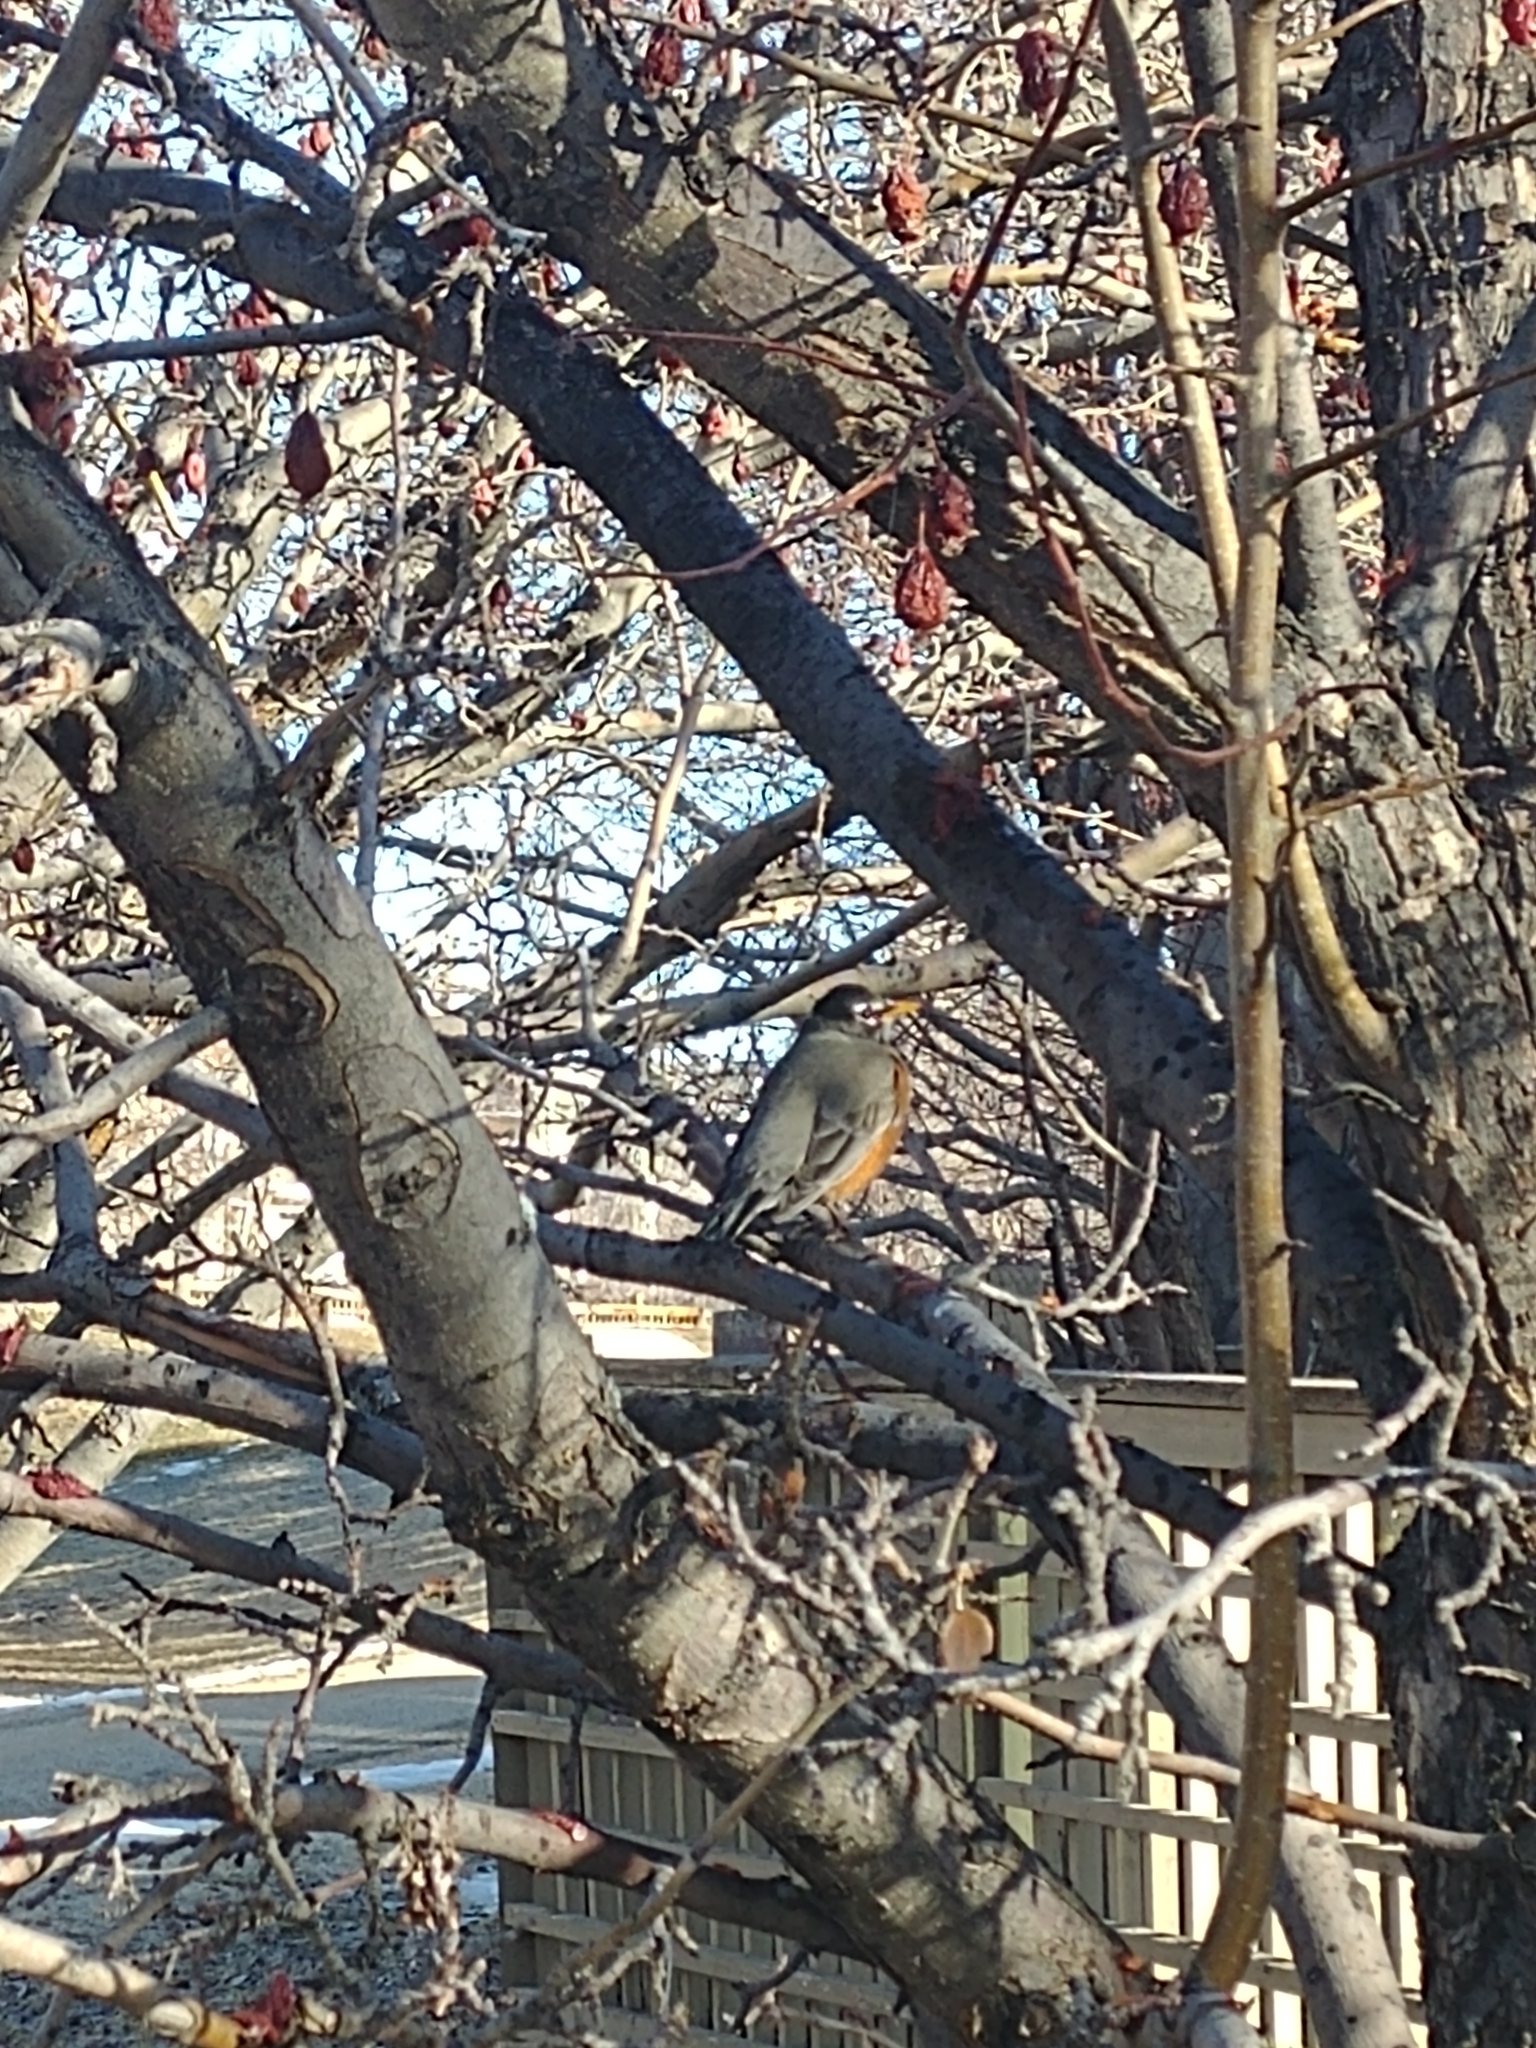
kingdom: Animalia
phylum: Chordata
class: Aves
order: Passeriformes
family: Turdidae
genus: Turdus
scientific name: Turdus migratorius
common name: American robin
